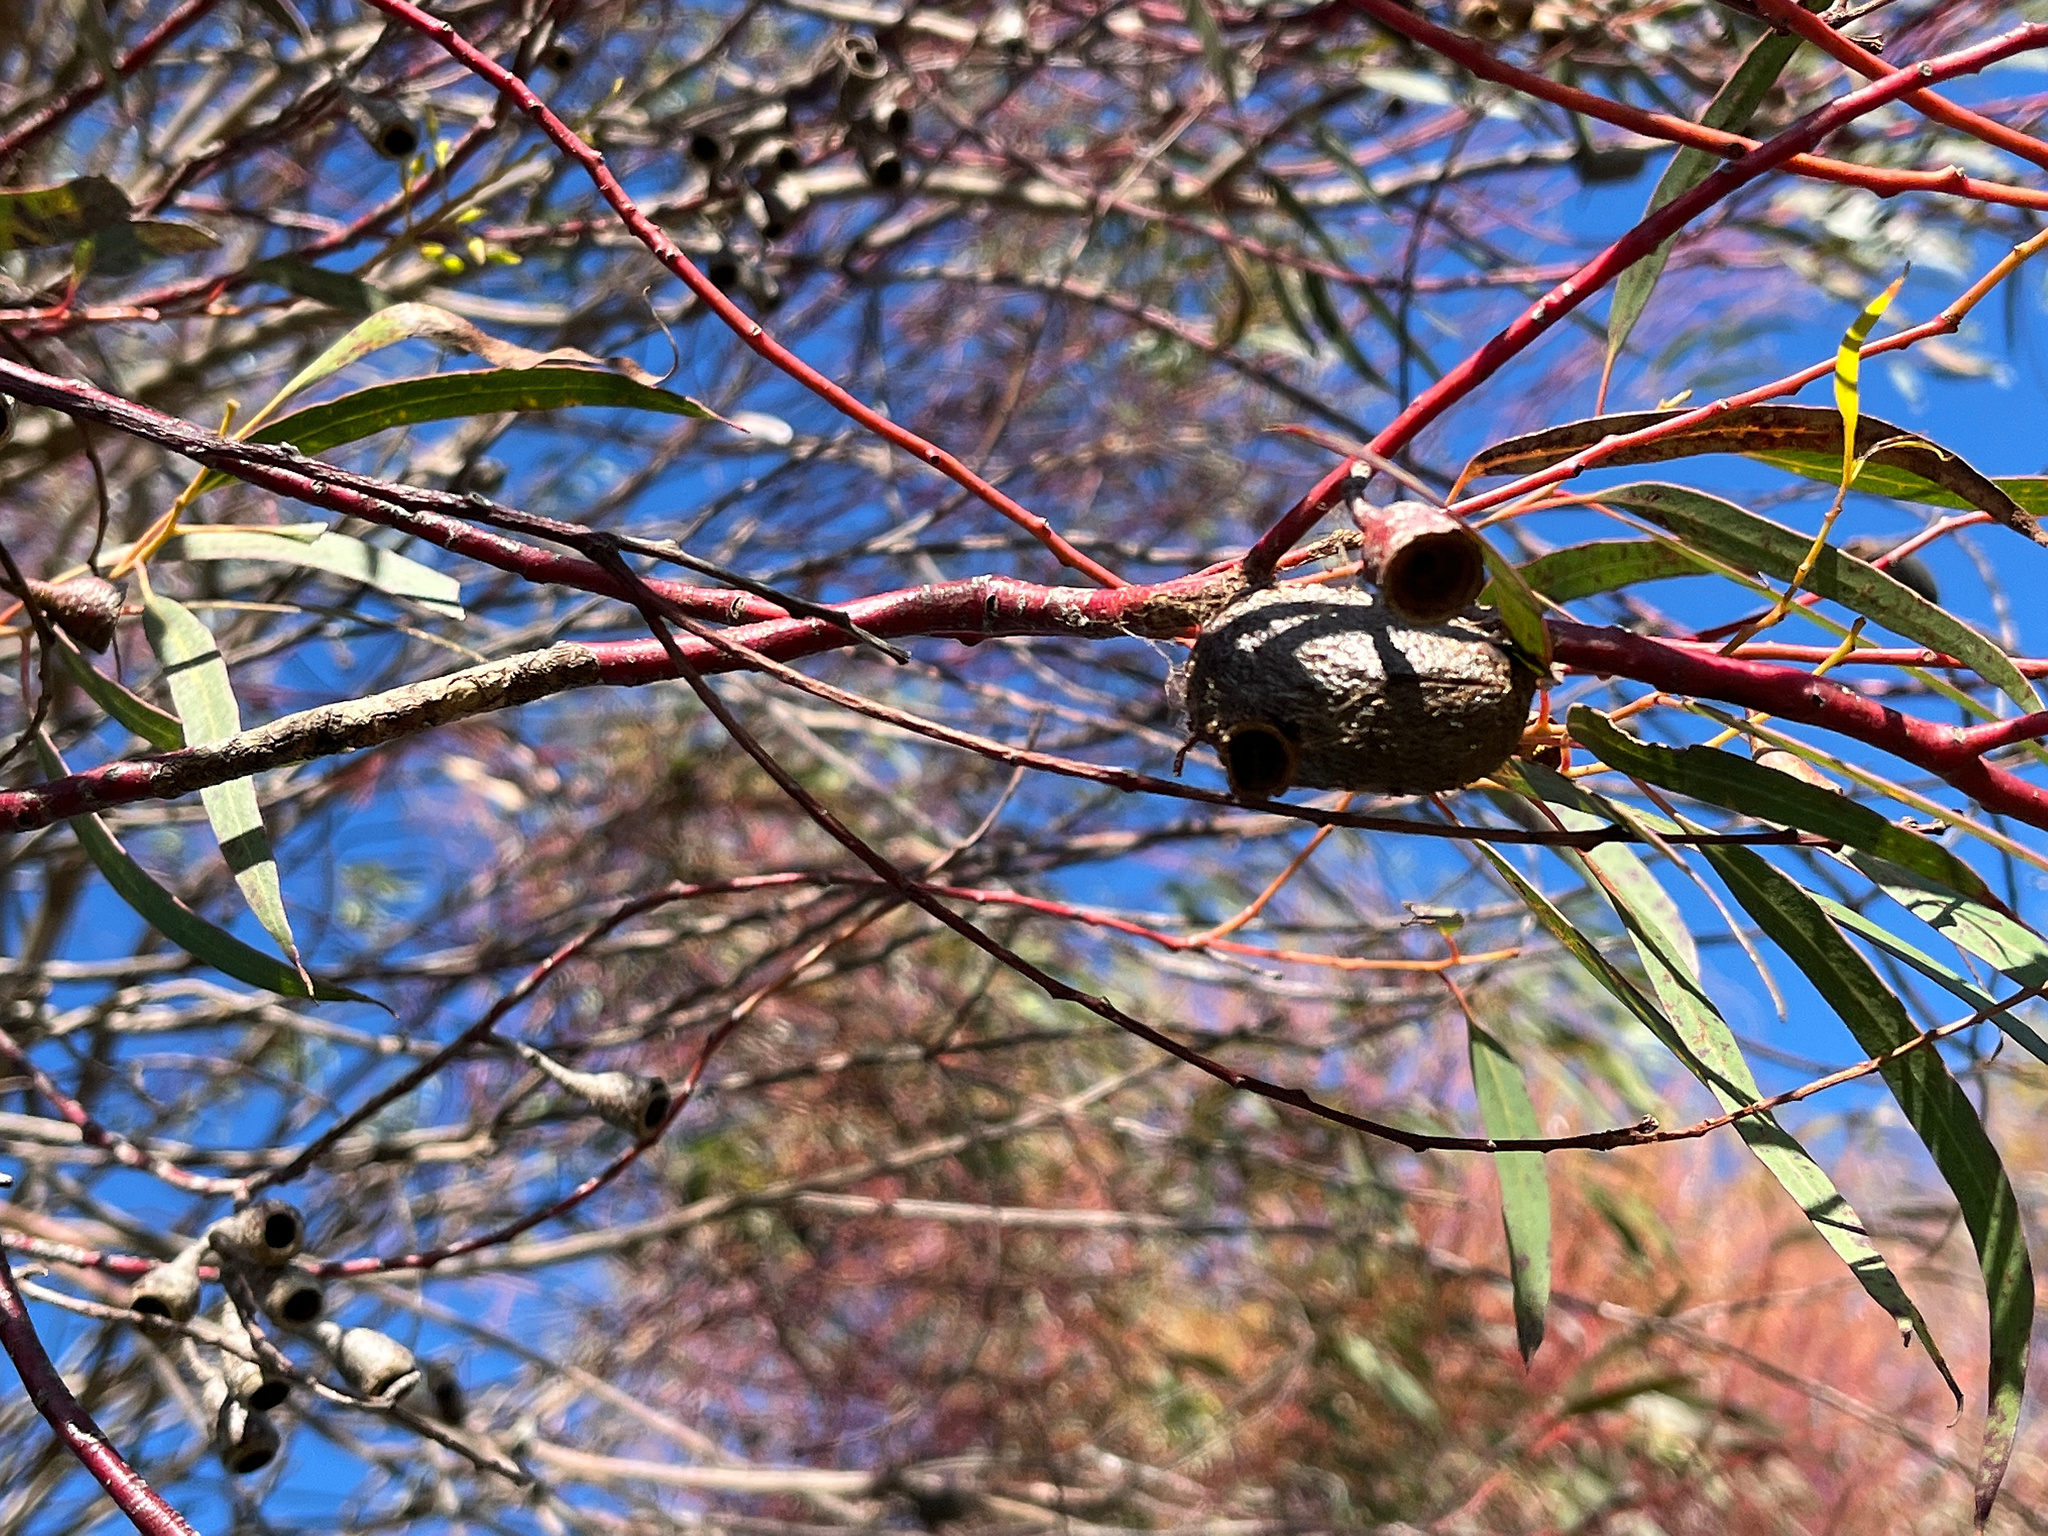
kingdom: Animalia
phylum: Arthropoda
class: Insecta
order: Lepidoptera
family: Saturniidae
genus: Opodiphthera
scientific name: Opodiphthera
